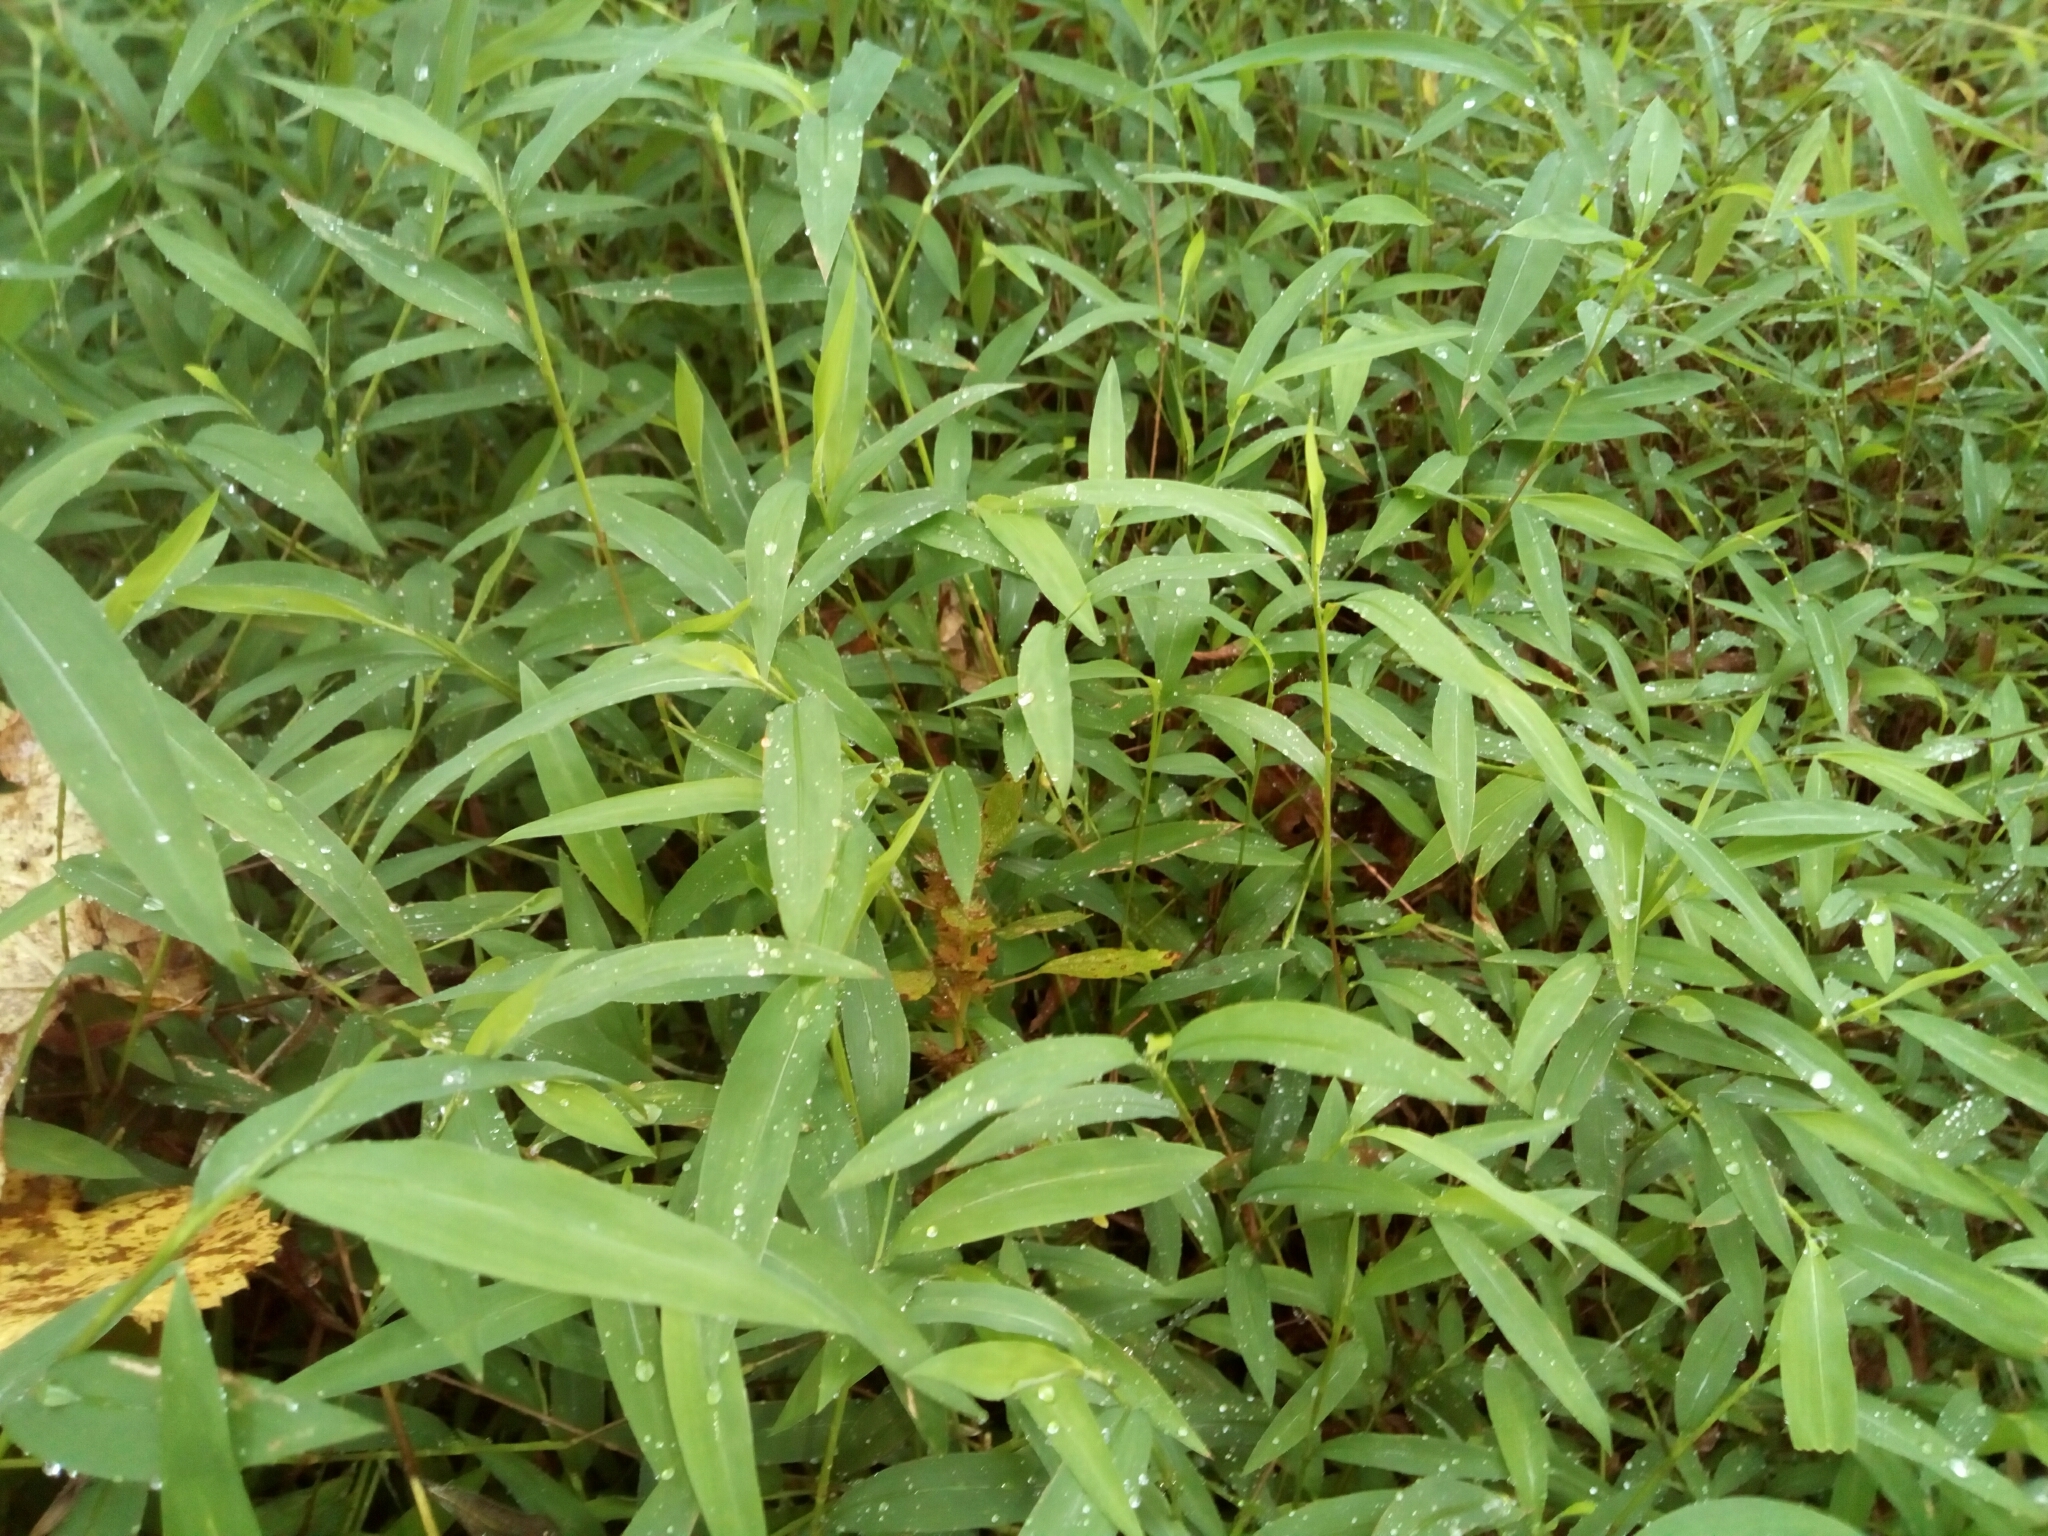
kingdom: Plantae
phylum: Tracheophyta
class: Liliopsida
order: Poales
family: Poaceae
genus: Microstegium
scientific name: Microstegium vimineum
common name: Japanese stiltgrass
